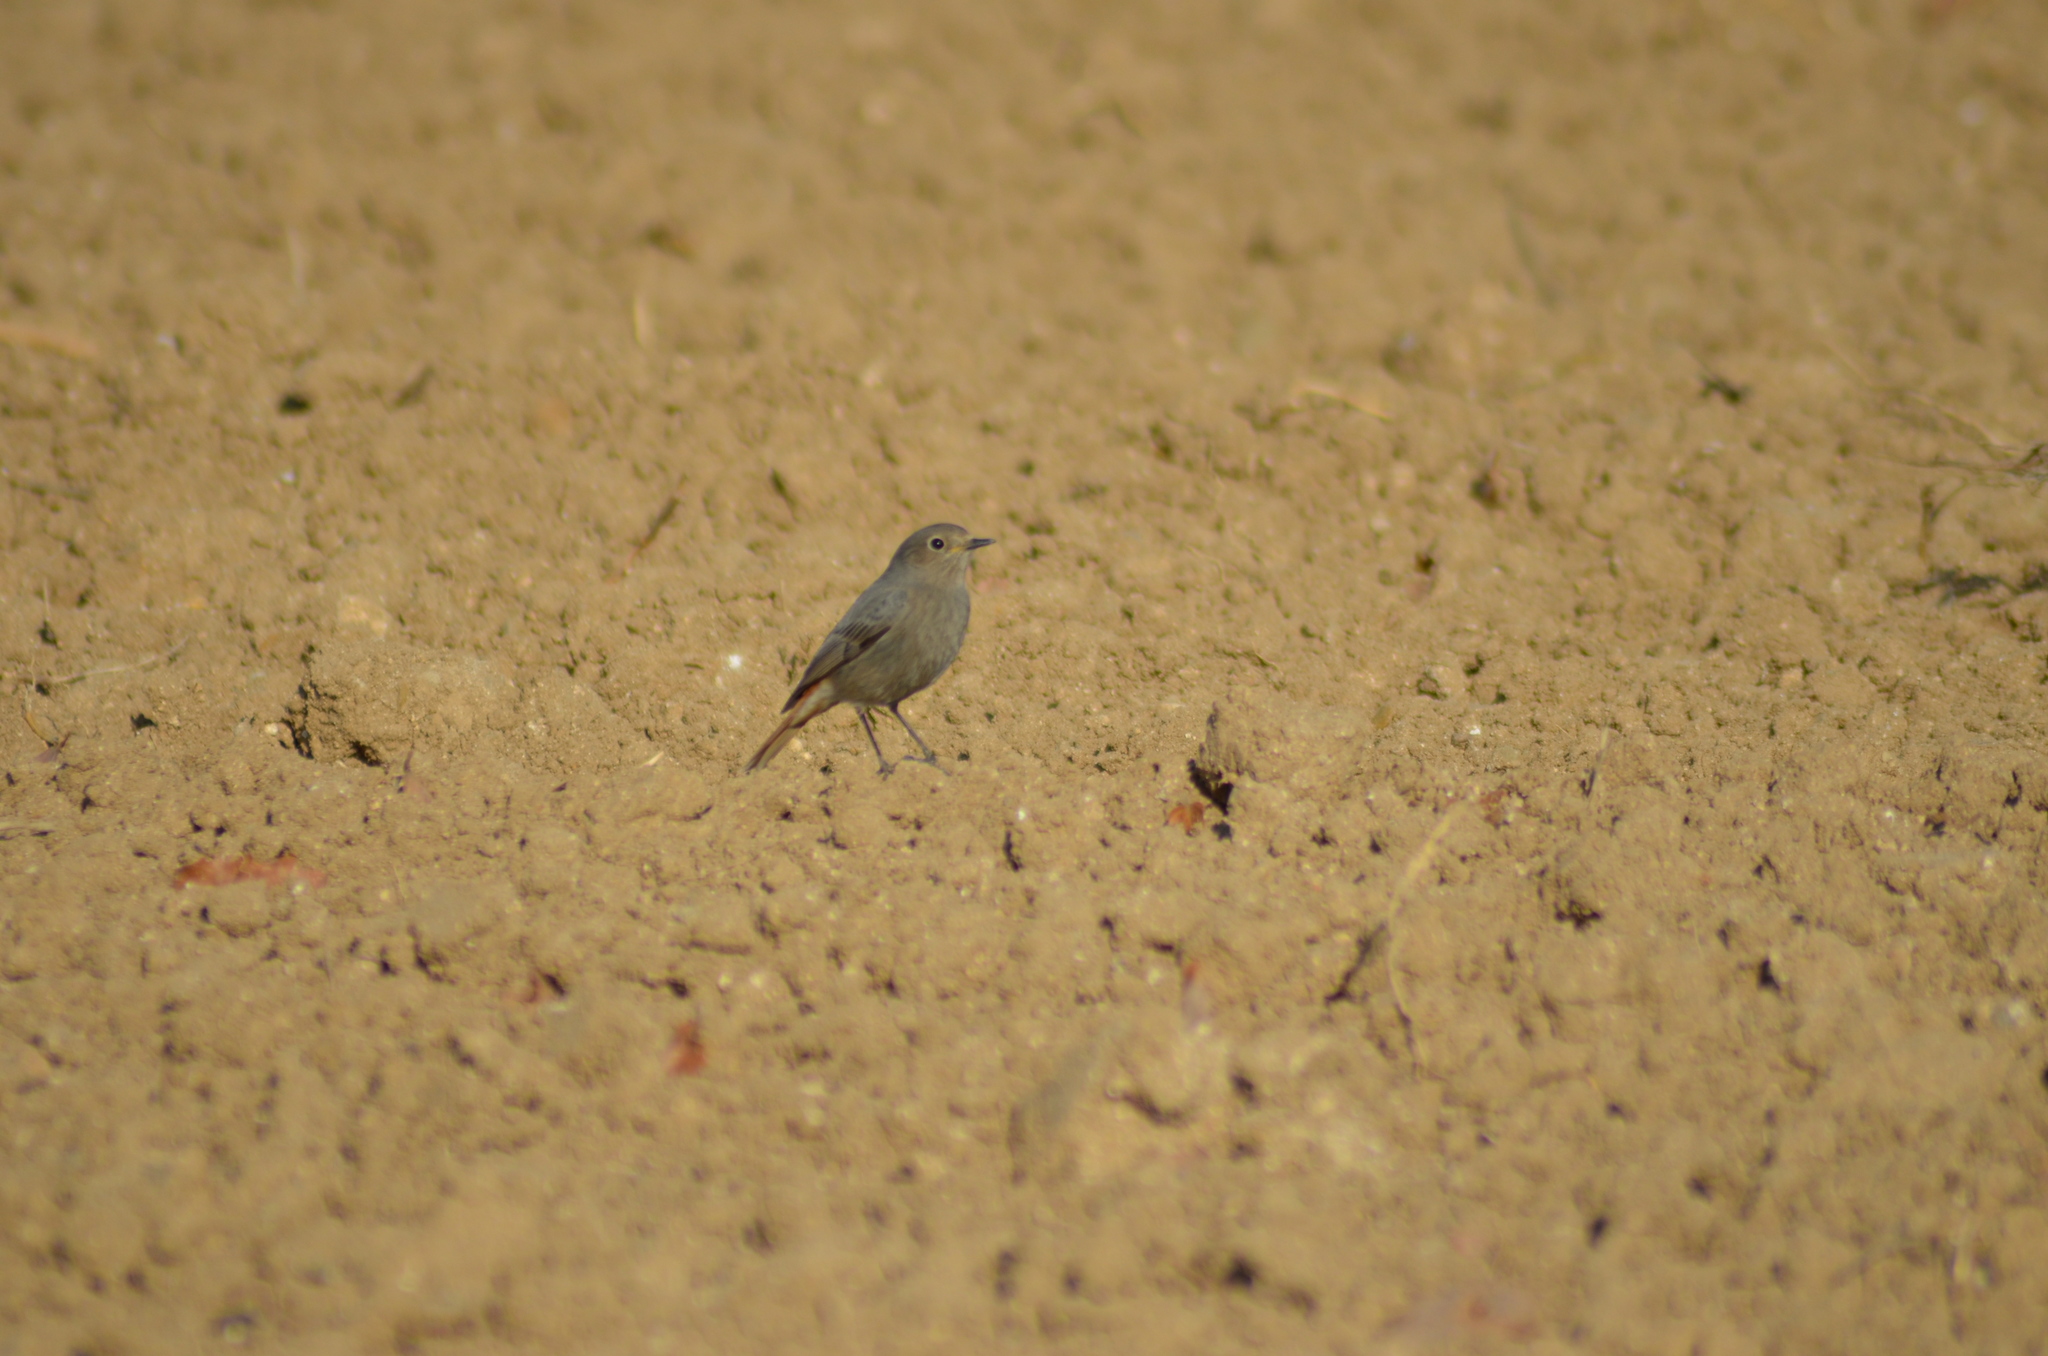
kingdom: Animalia
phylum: Chordata
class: Aves
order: Passeriformes
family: Muscicapidae
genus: Phoenicurus
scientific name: Phoenicurus ochruros
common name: Black redstart
